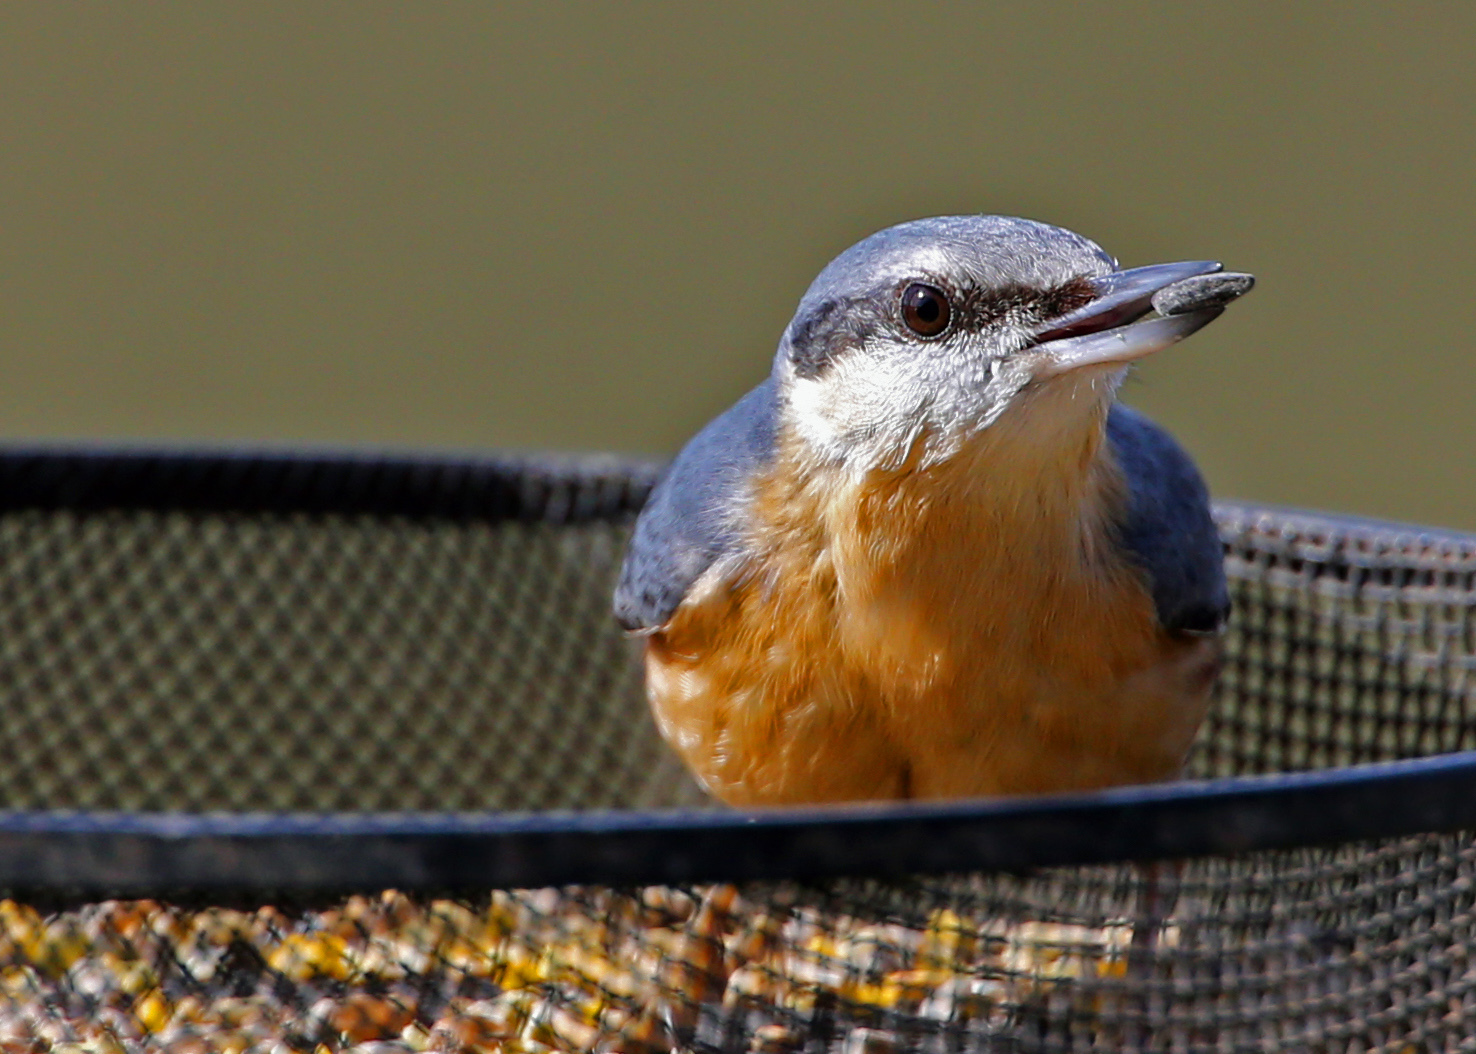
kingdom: Animalia
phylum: Chordata
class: Aves
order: Passeriformes
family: Sittidae
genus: Sitta
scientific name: Sitta europaea
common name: Eurasian nuthatch
